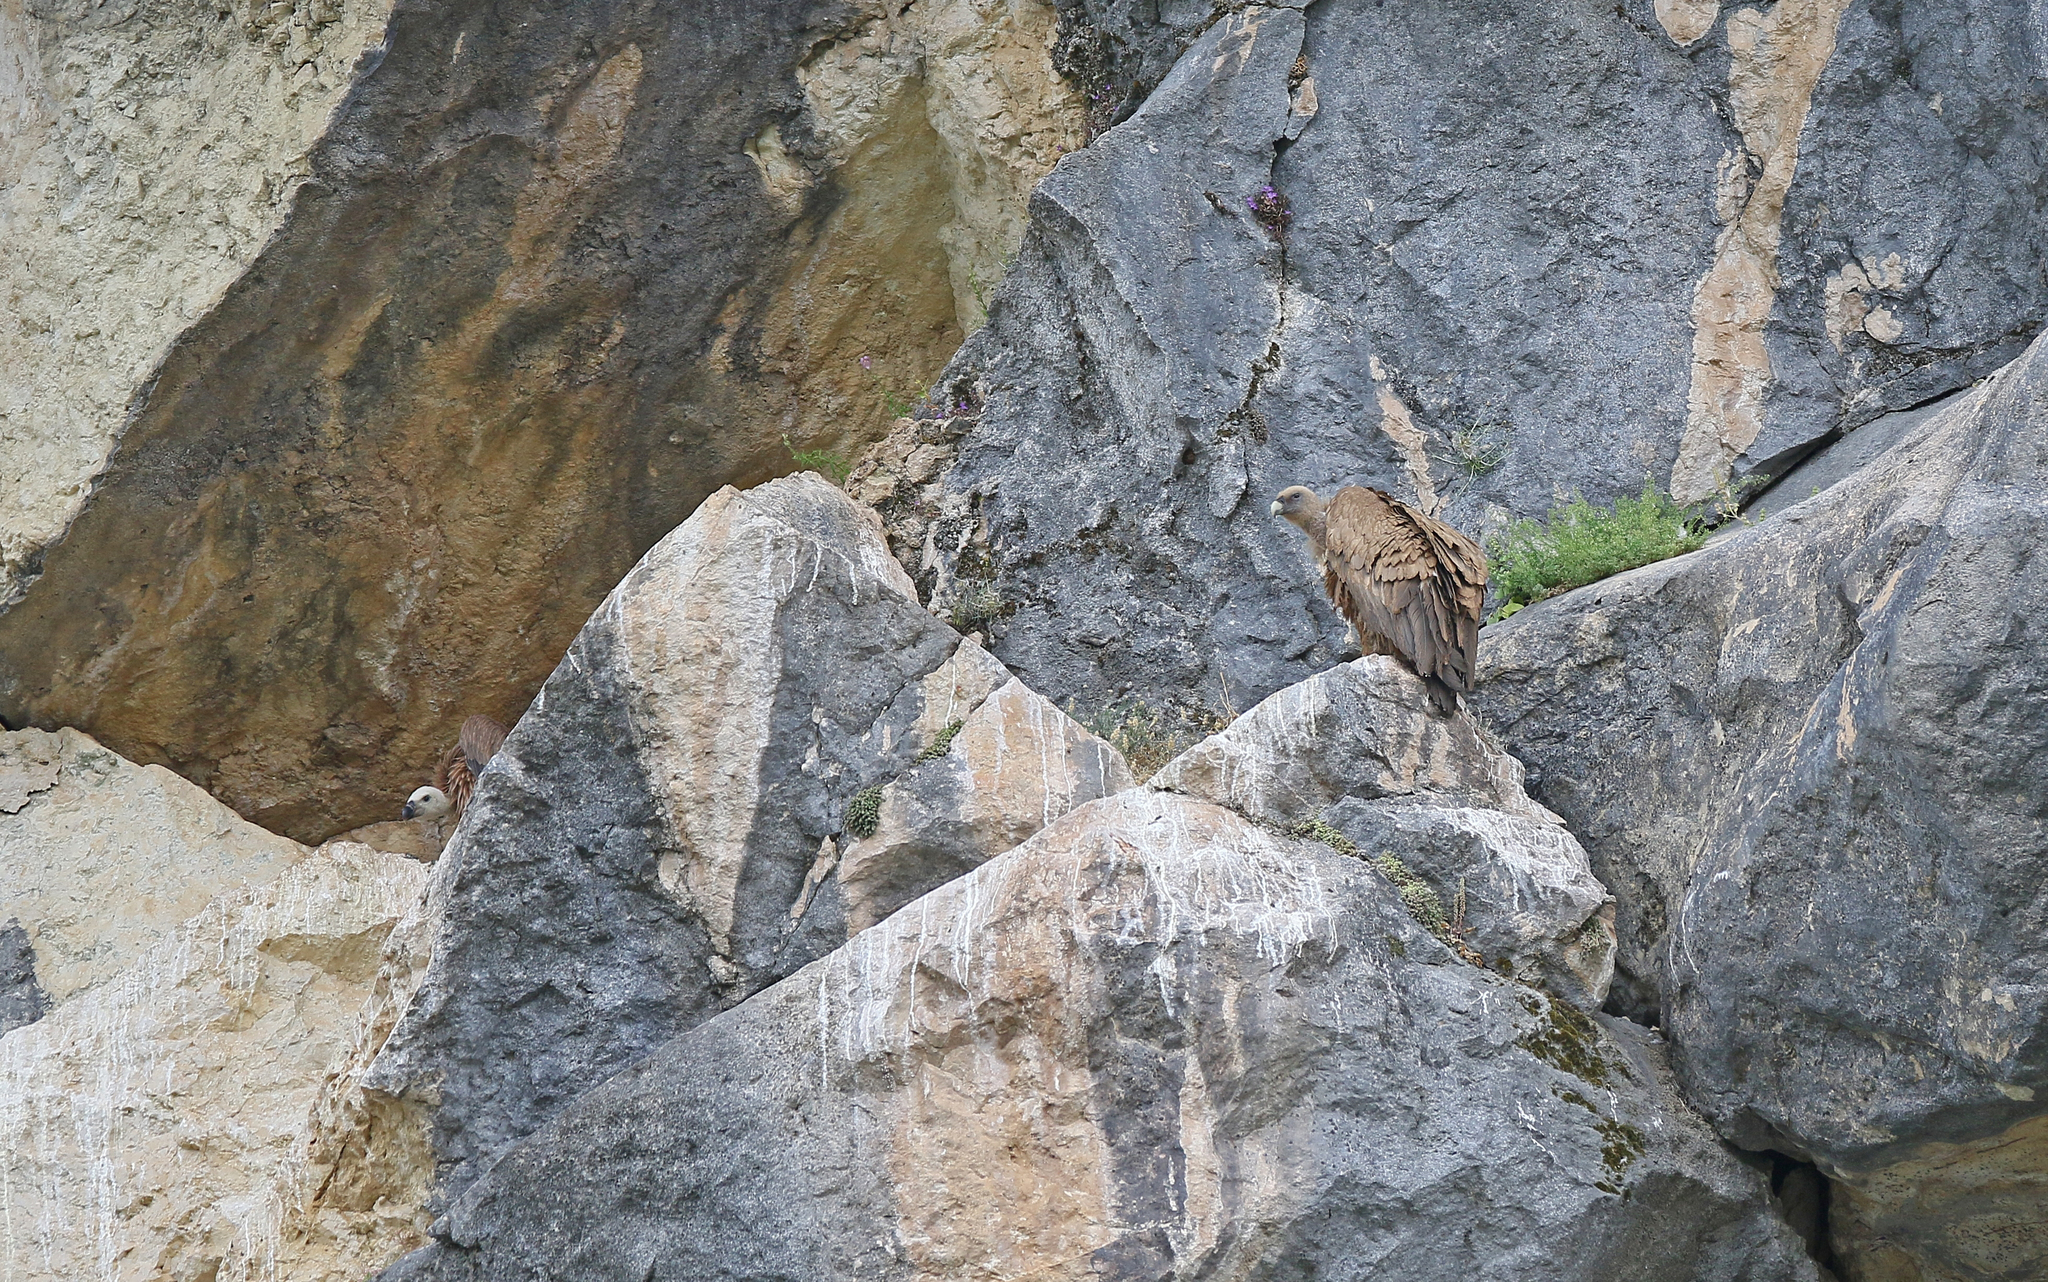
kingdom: Animalia
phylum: Chordata
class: Aves
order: Accipitriformes
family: Accipitridae
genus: Gyps
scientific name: Gyps fulvus
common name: Griffon vulture
